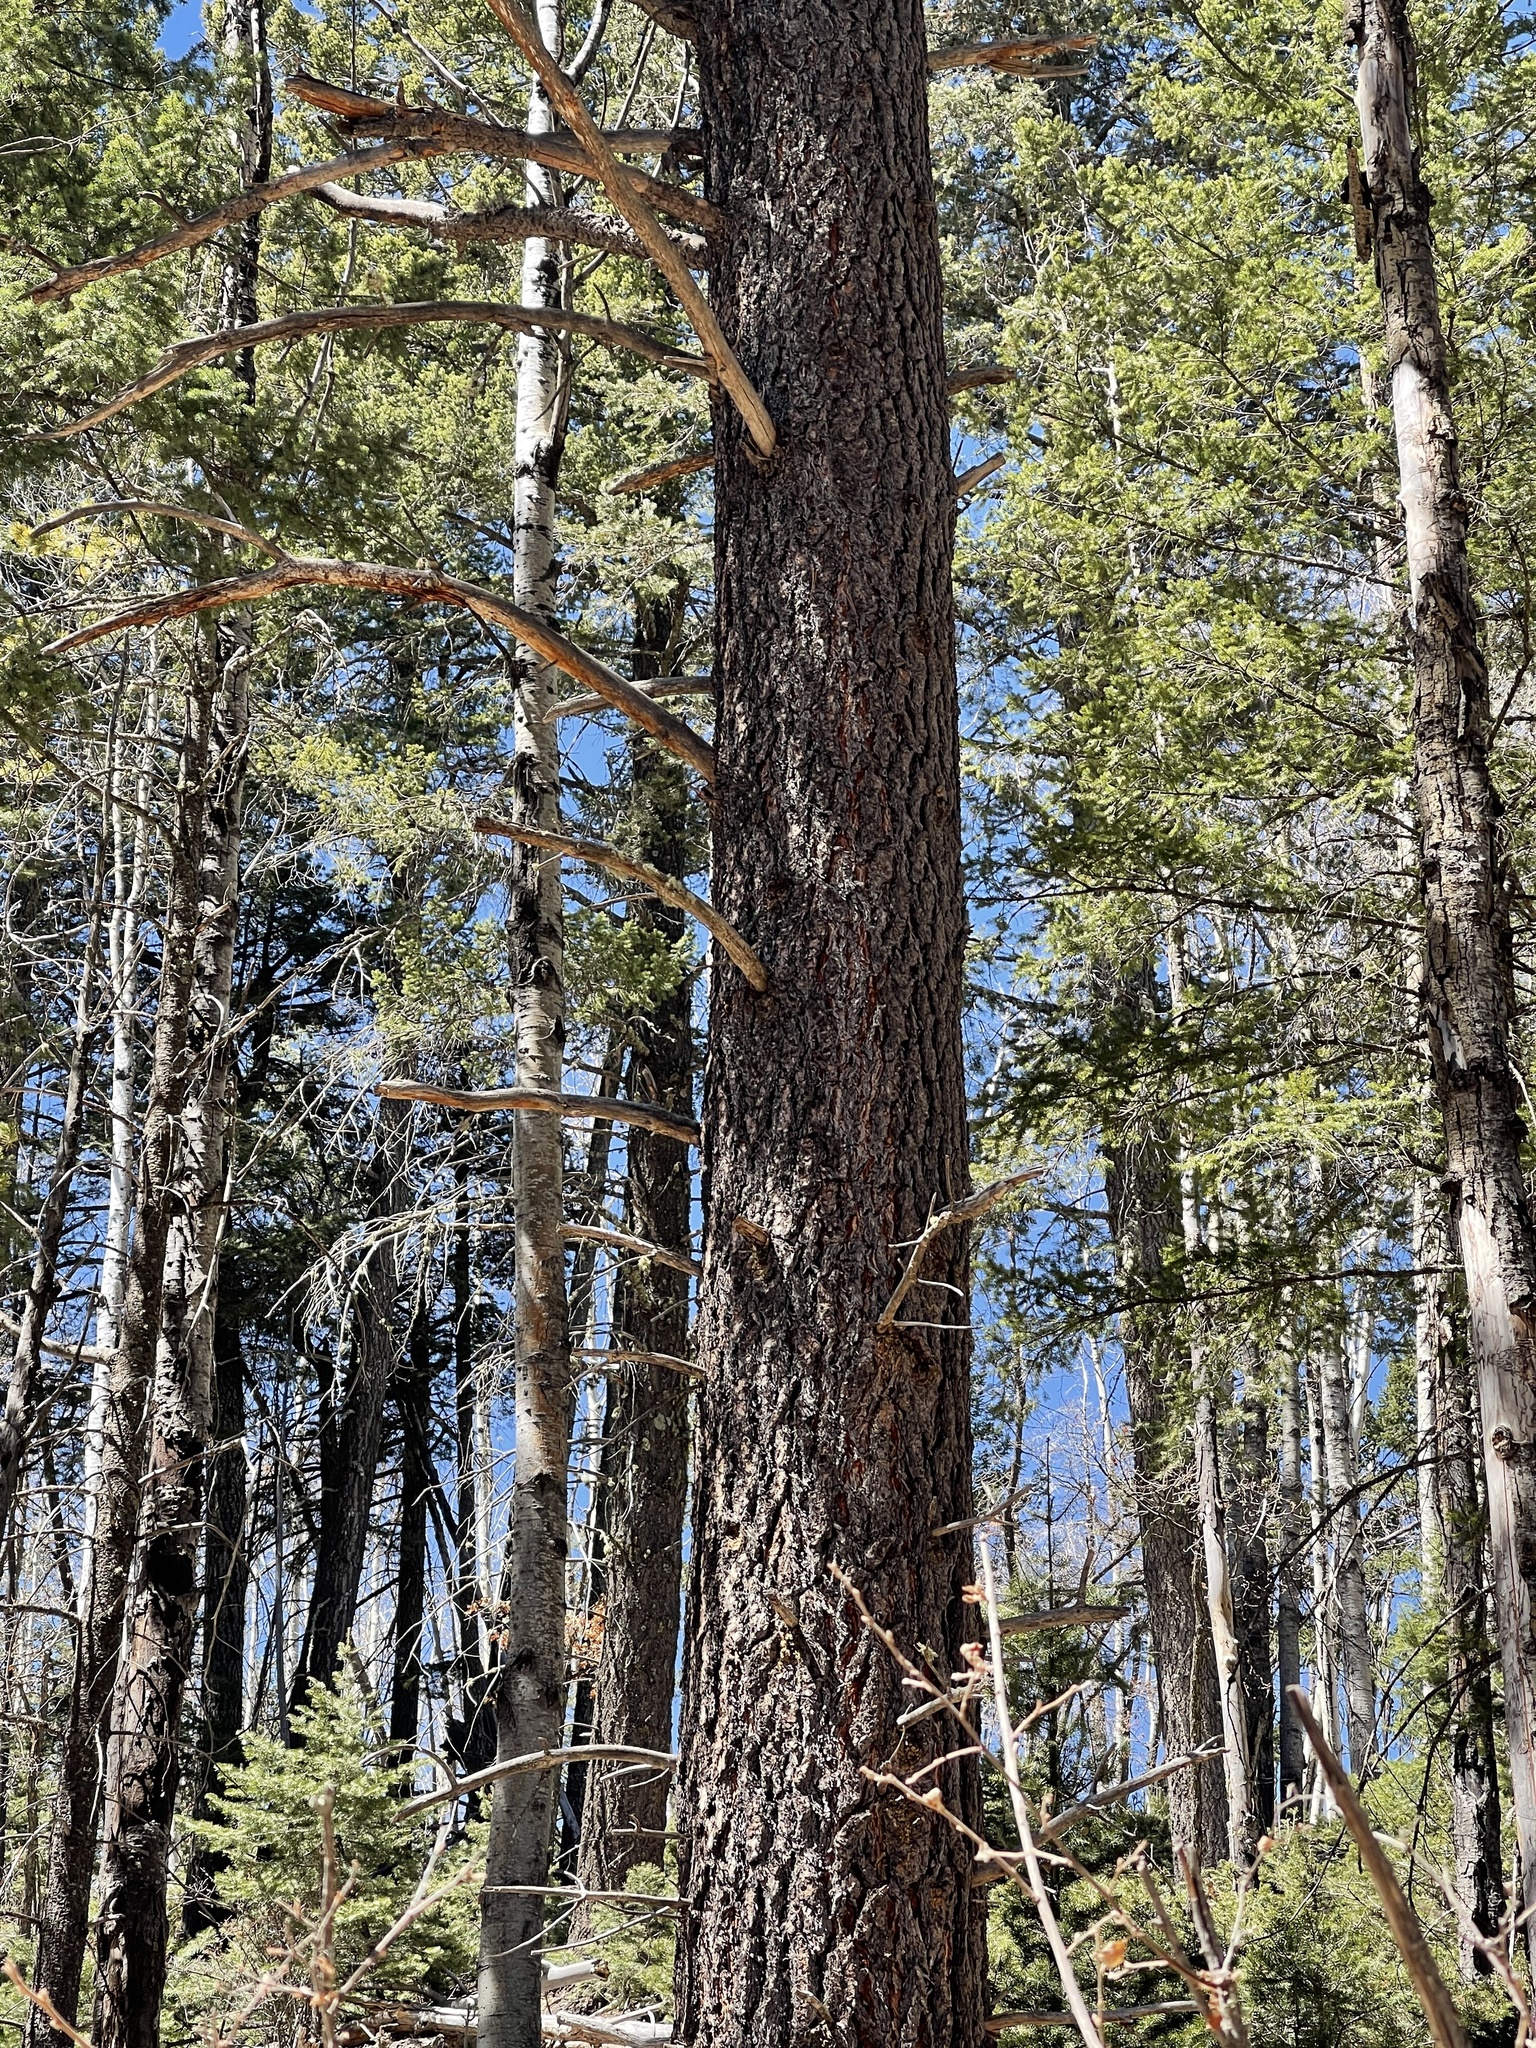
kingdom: Plantae
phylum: Tracheophyta
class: Pinopsida
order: Pinales
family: Pinaceae
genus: Pinus
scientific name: Pinus ponderosa
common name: Western yellow-pine
